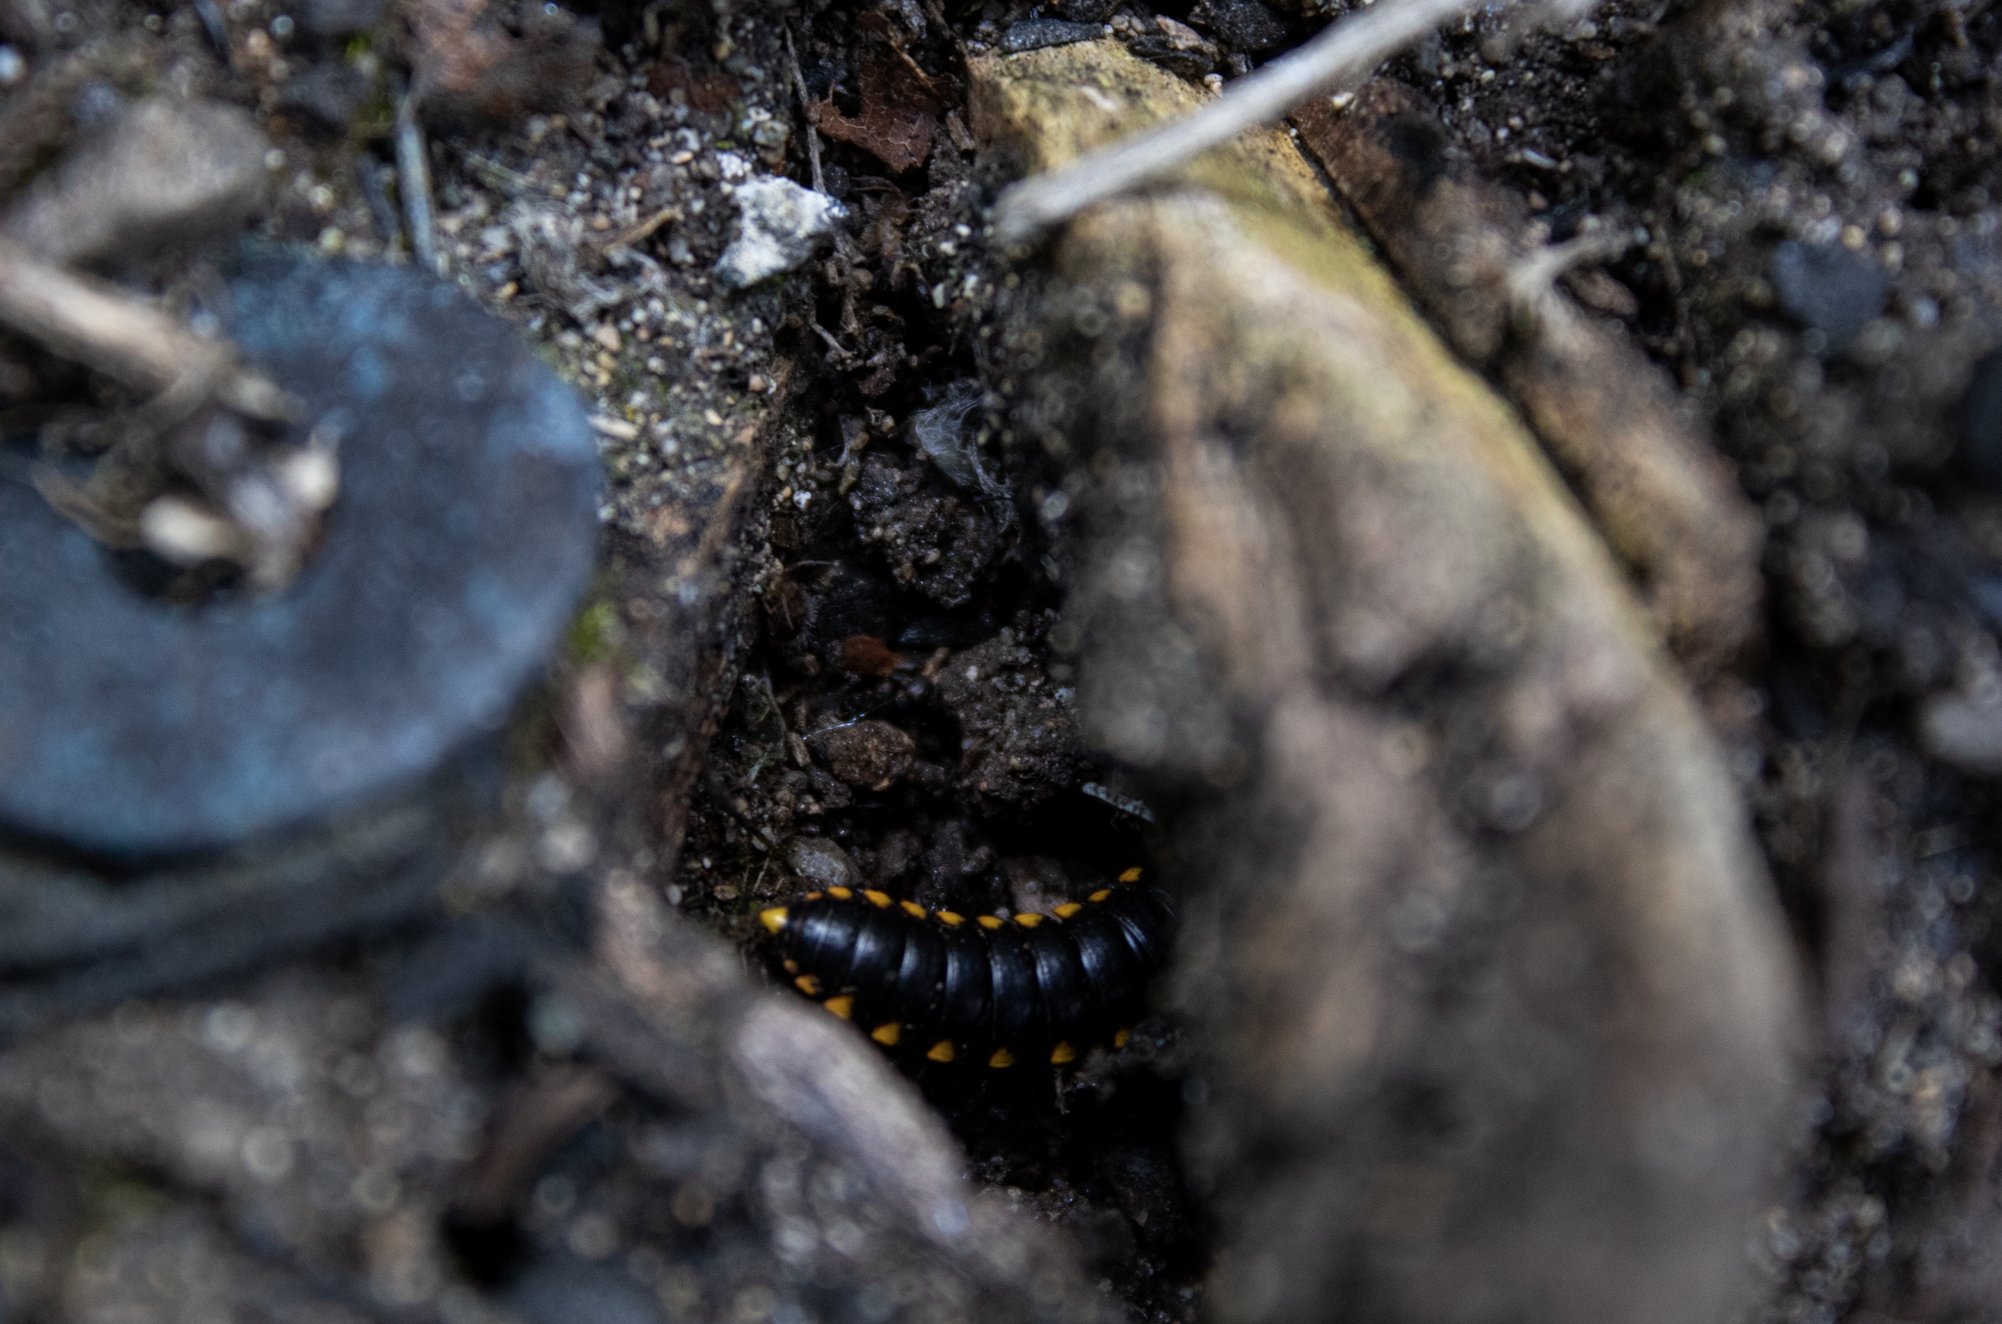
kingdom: Animalia
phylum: Arthropoda
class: Diplopoda
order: Polydesmida
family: Xystodesmidae
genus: Harpaphe
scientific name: Harpaphe haydeniana
